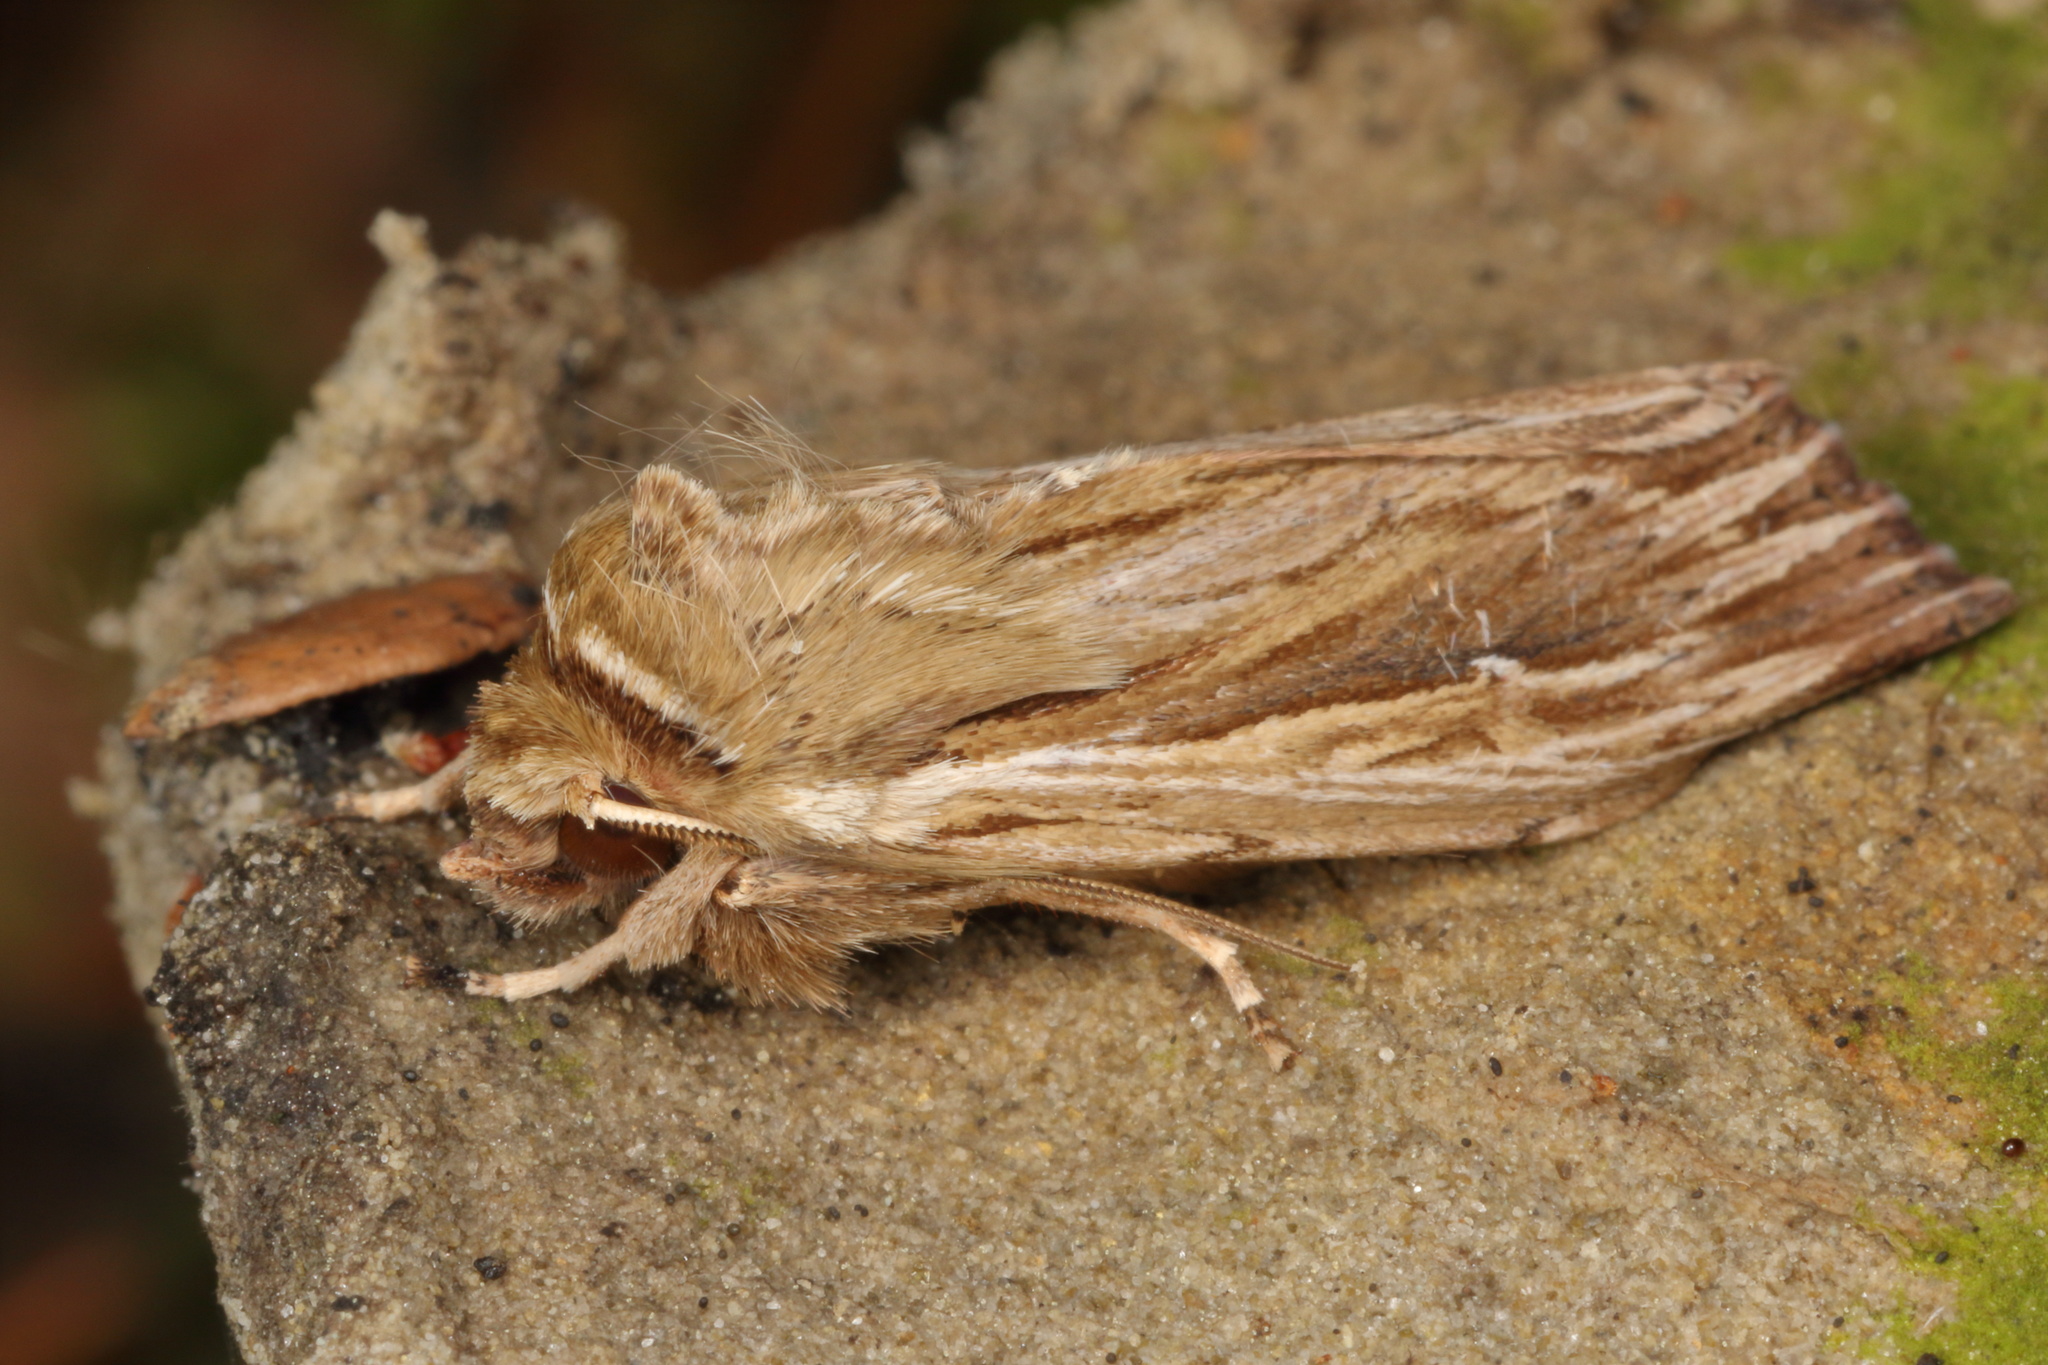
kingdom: Animalia
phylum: Arthropoda
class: Insecta
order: Lepidoptera
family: Noctuidae
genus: Persectania
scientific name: Persectania aversa
